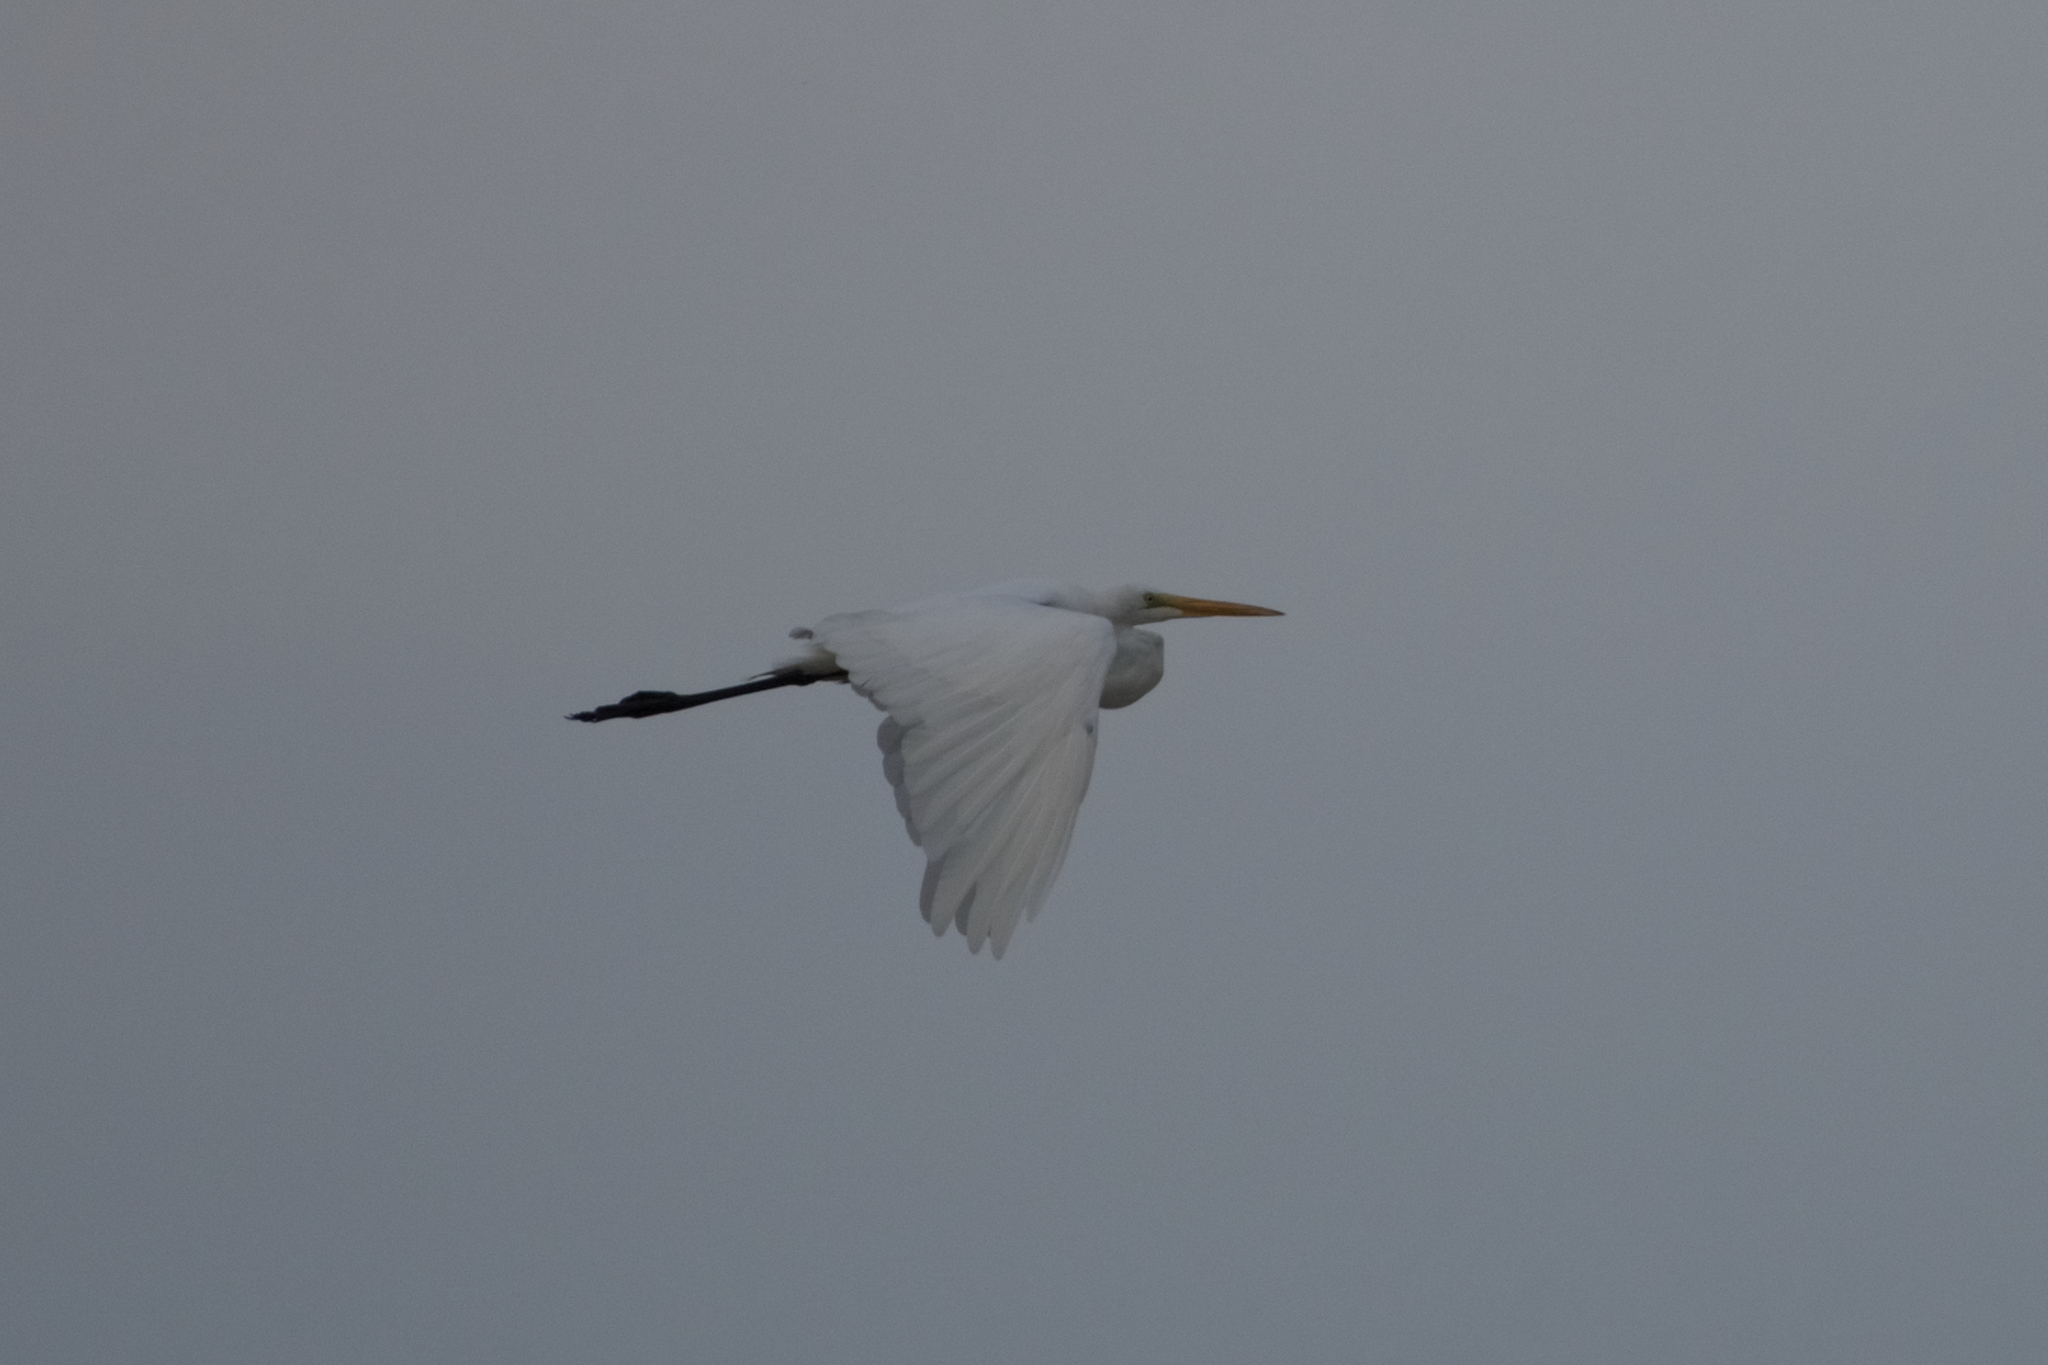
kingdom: Animalia
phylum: Chordata
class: Aves
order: Pelecaniformes
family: Ardeidae
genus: Ardea
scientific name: Ardea alba
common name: Great egret
